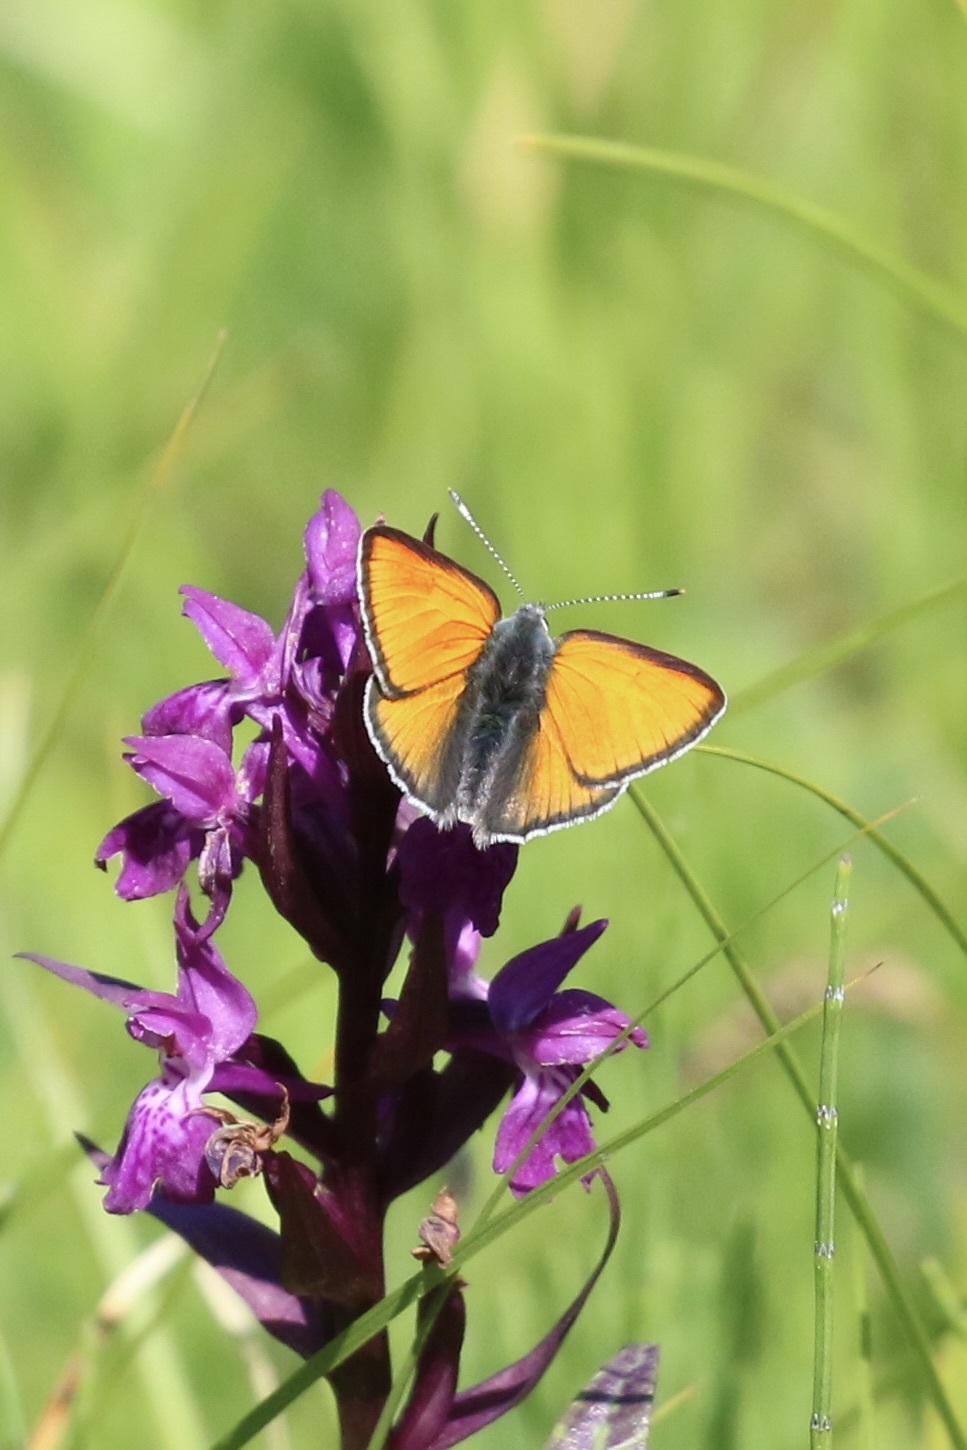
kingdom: Animalia
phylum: Arthropoda
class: Insecta
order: Lepidoptera
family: Lycaenidae
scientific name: Lycaenidae
